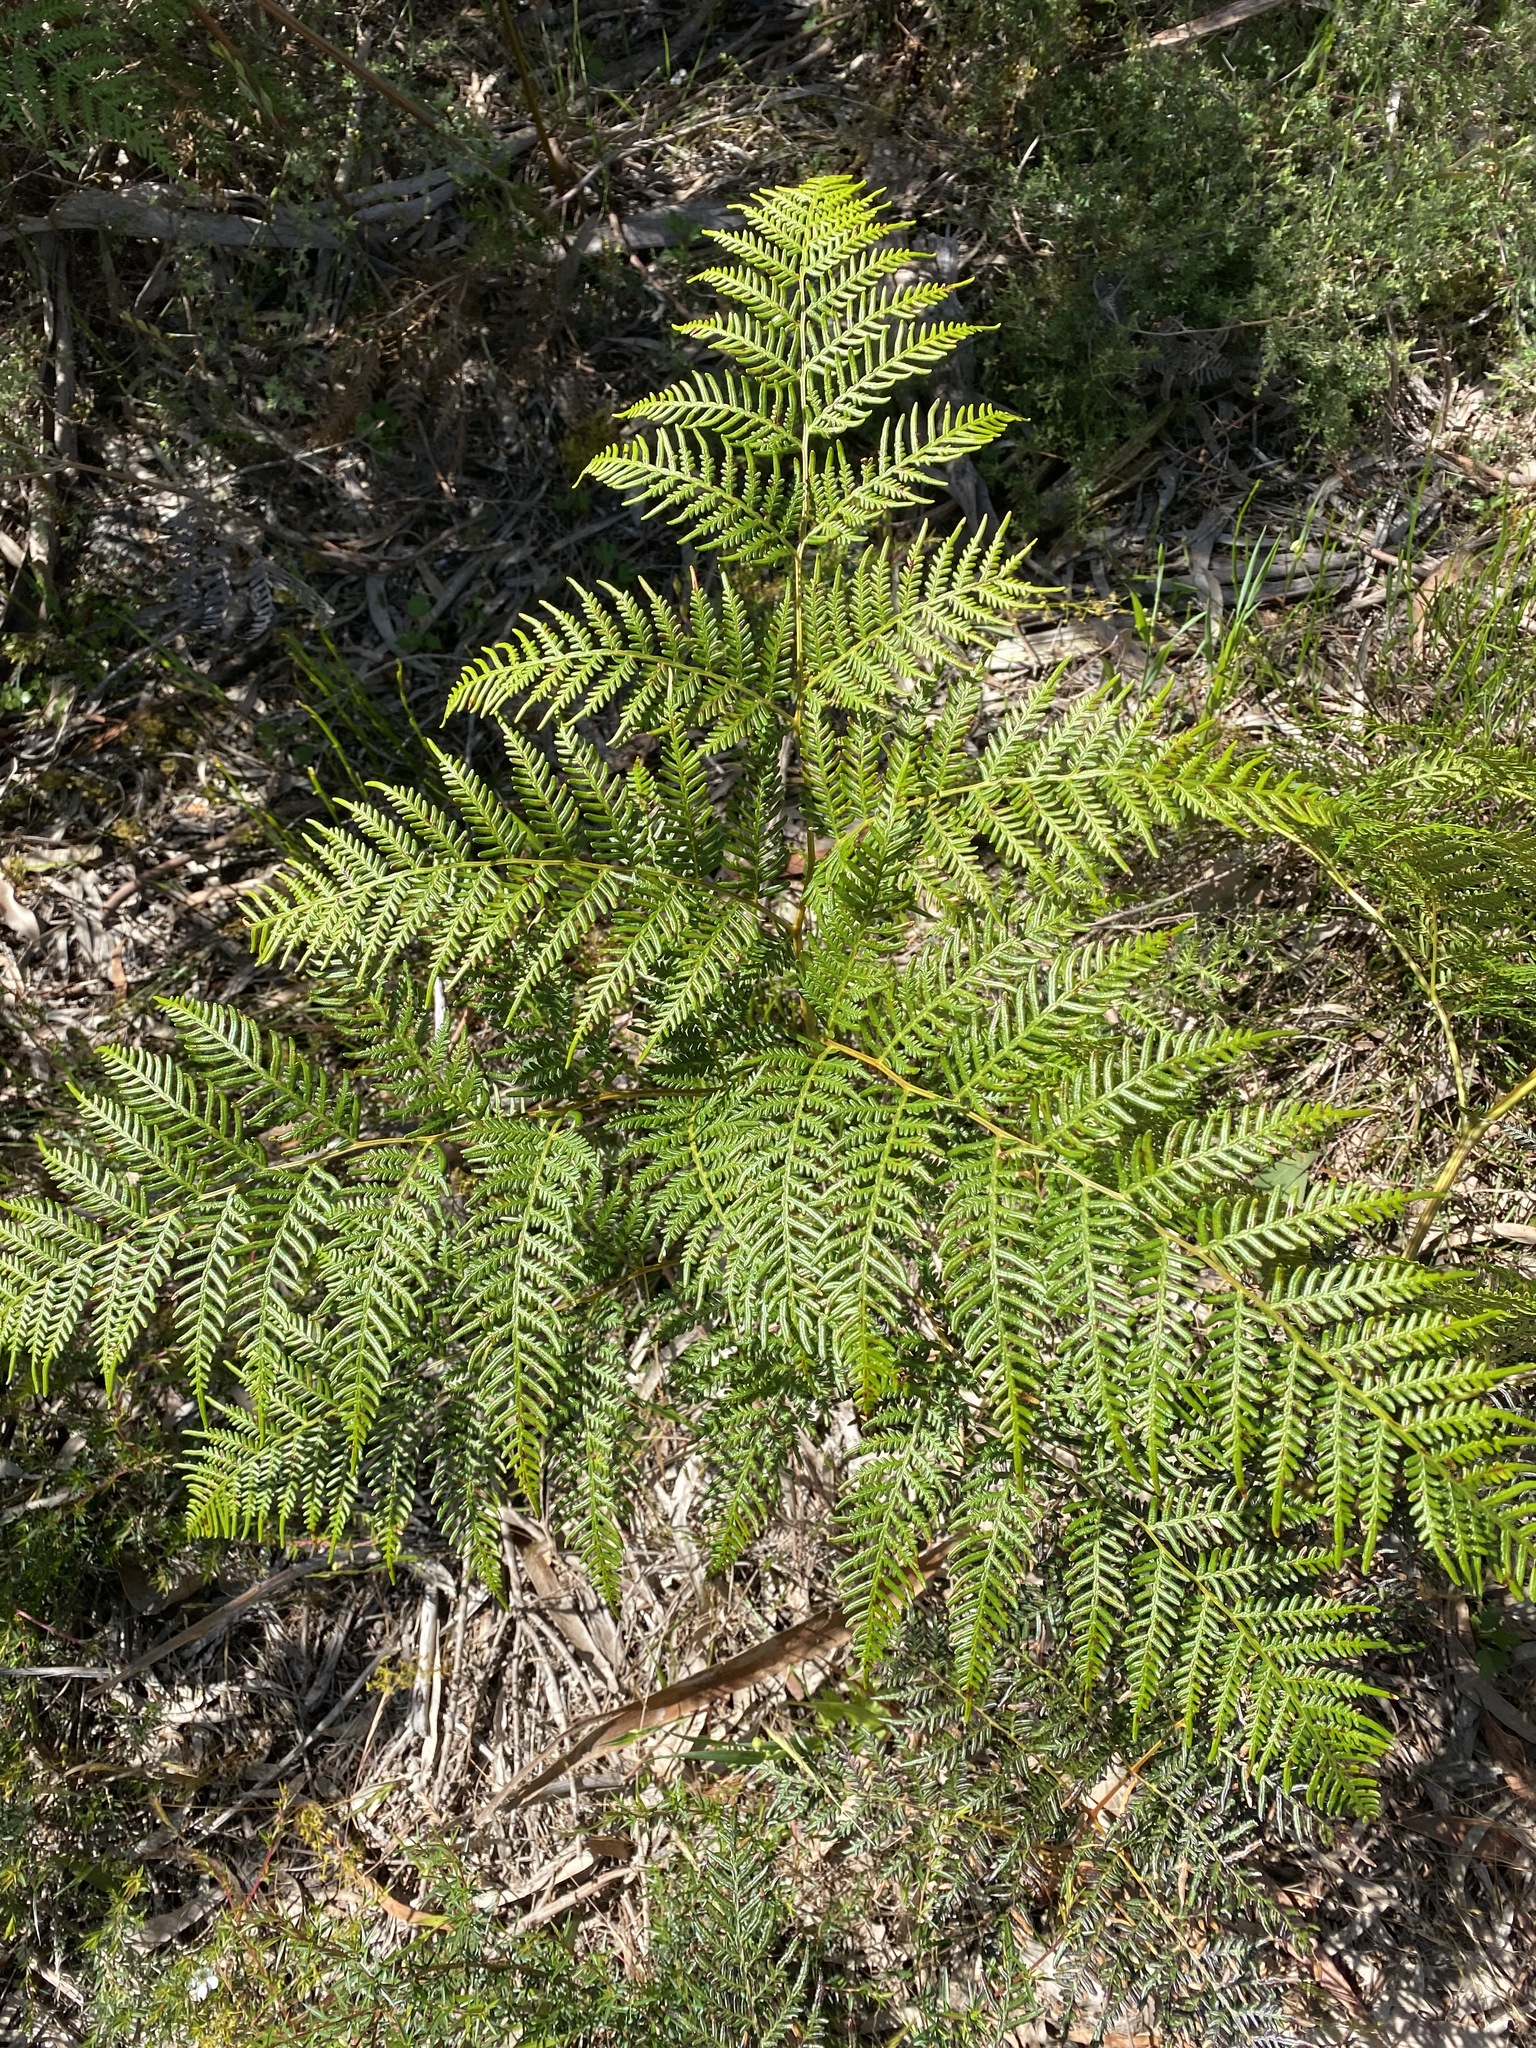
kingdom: Plantae
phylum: Tracheophyta
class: Polypodiopsida
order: Polypodiales
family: Dennstaedtiaceae
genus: Pteridium
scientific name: Pteridium esculentum
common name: Bracken fern
